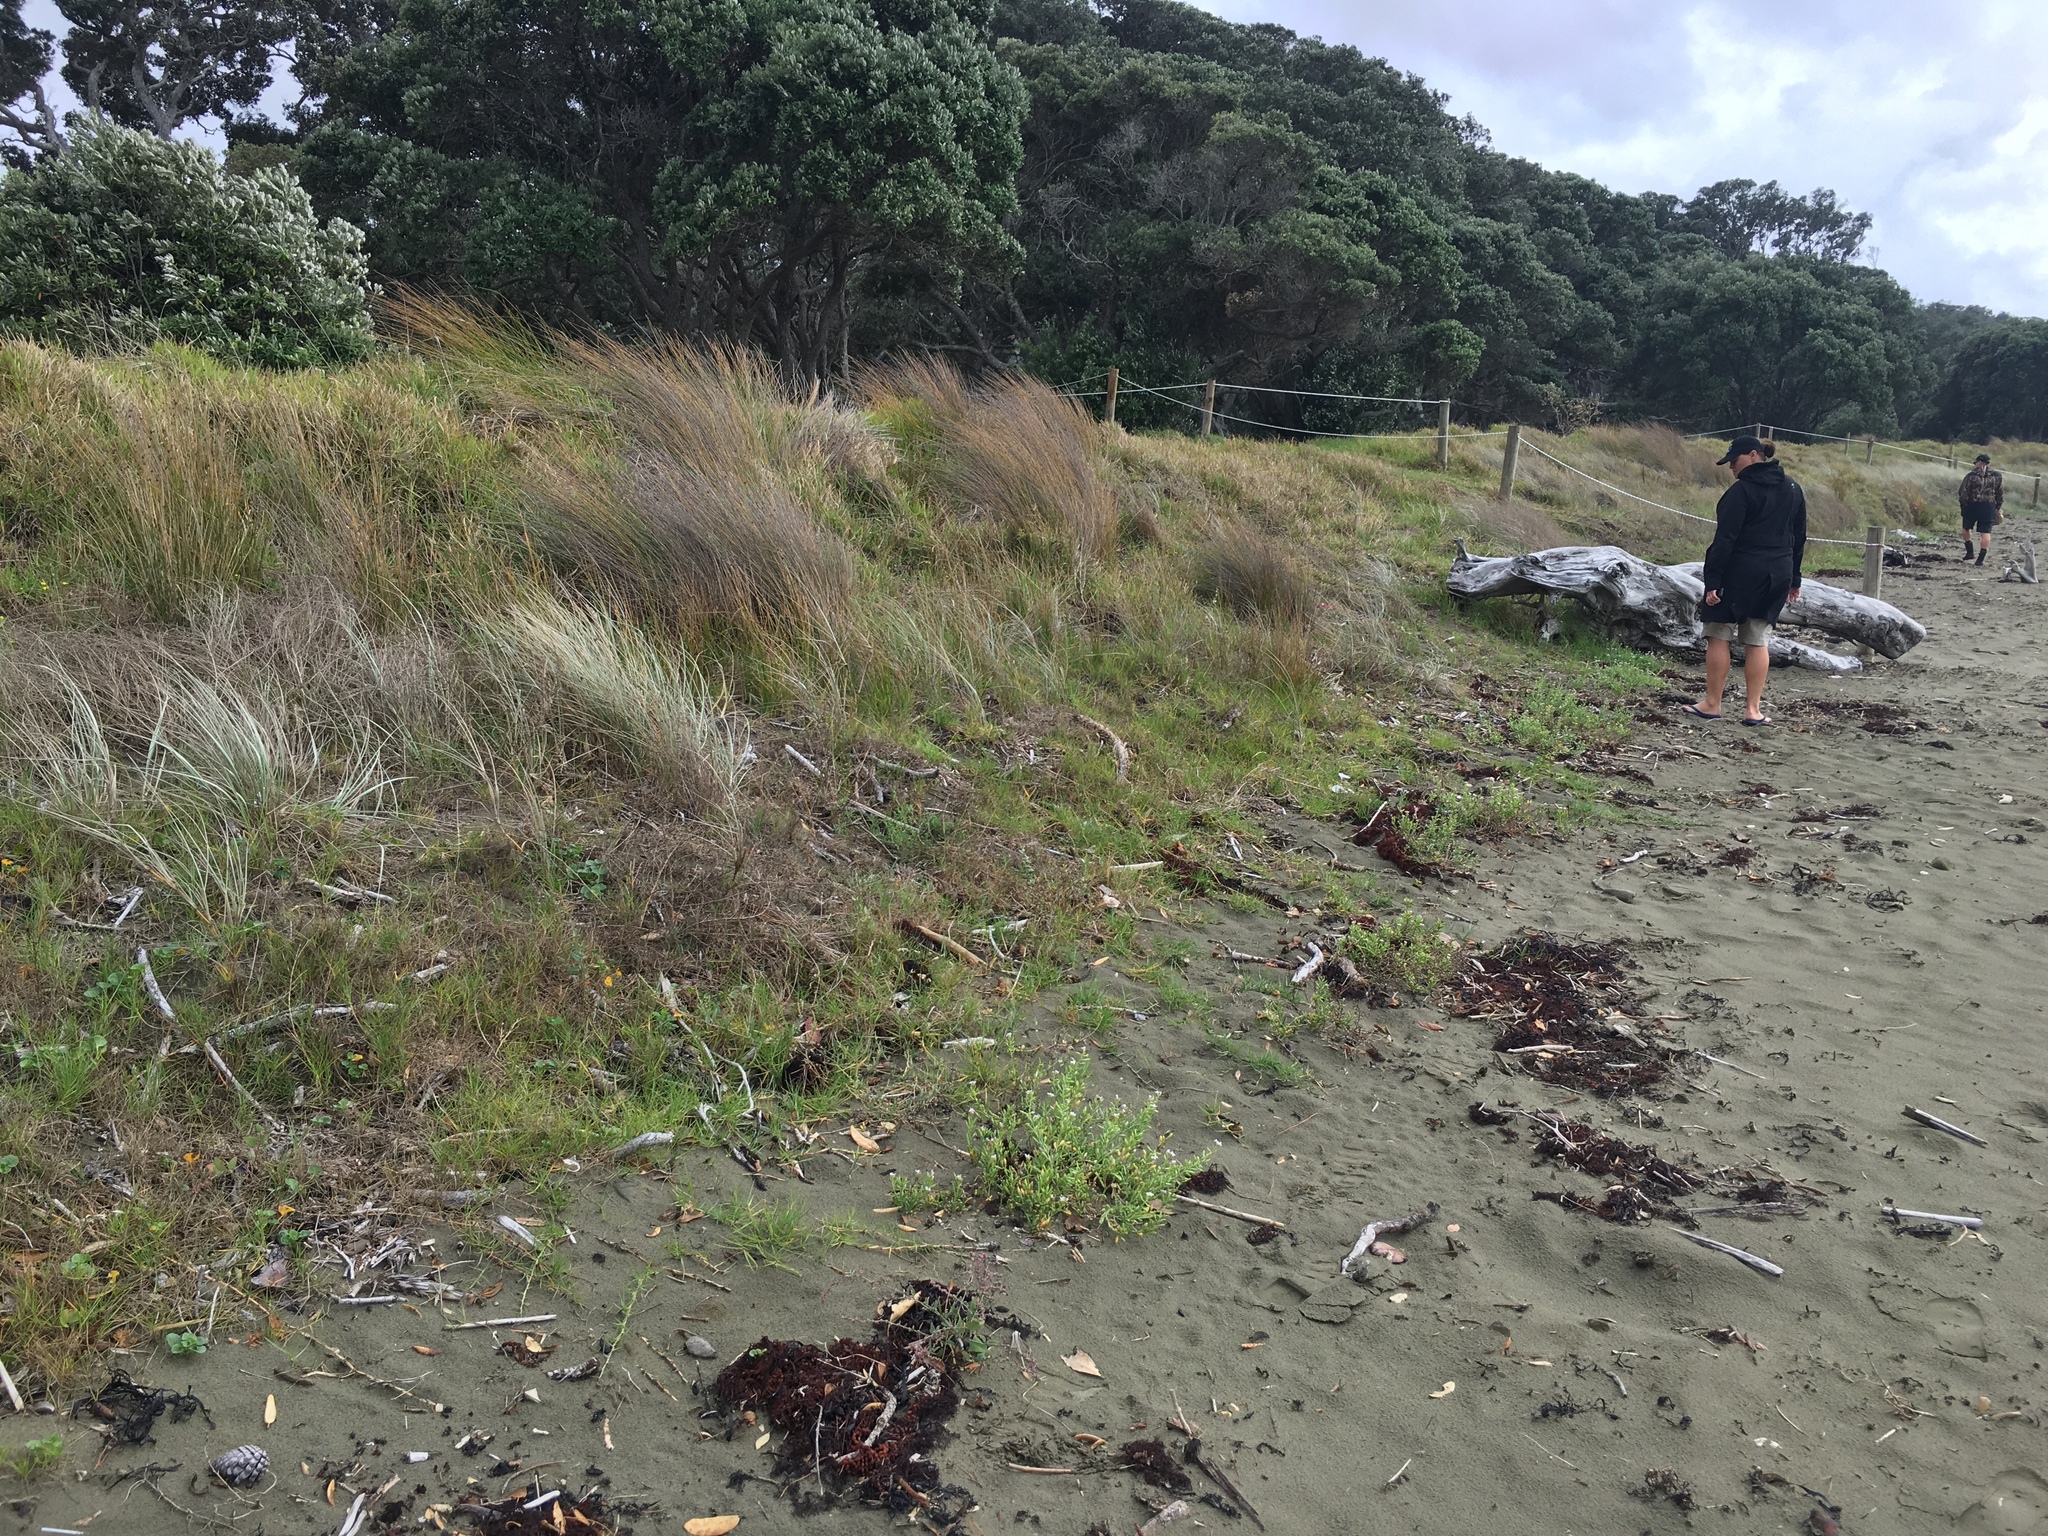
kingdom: Plantae
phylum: Tracheophyta
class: Liliopsida
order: Poales
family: Poaceae
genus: Spinifex
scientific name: Spinifex sericeus
